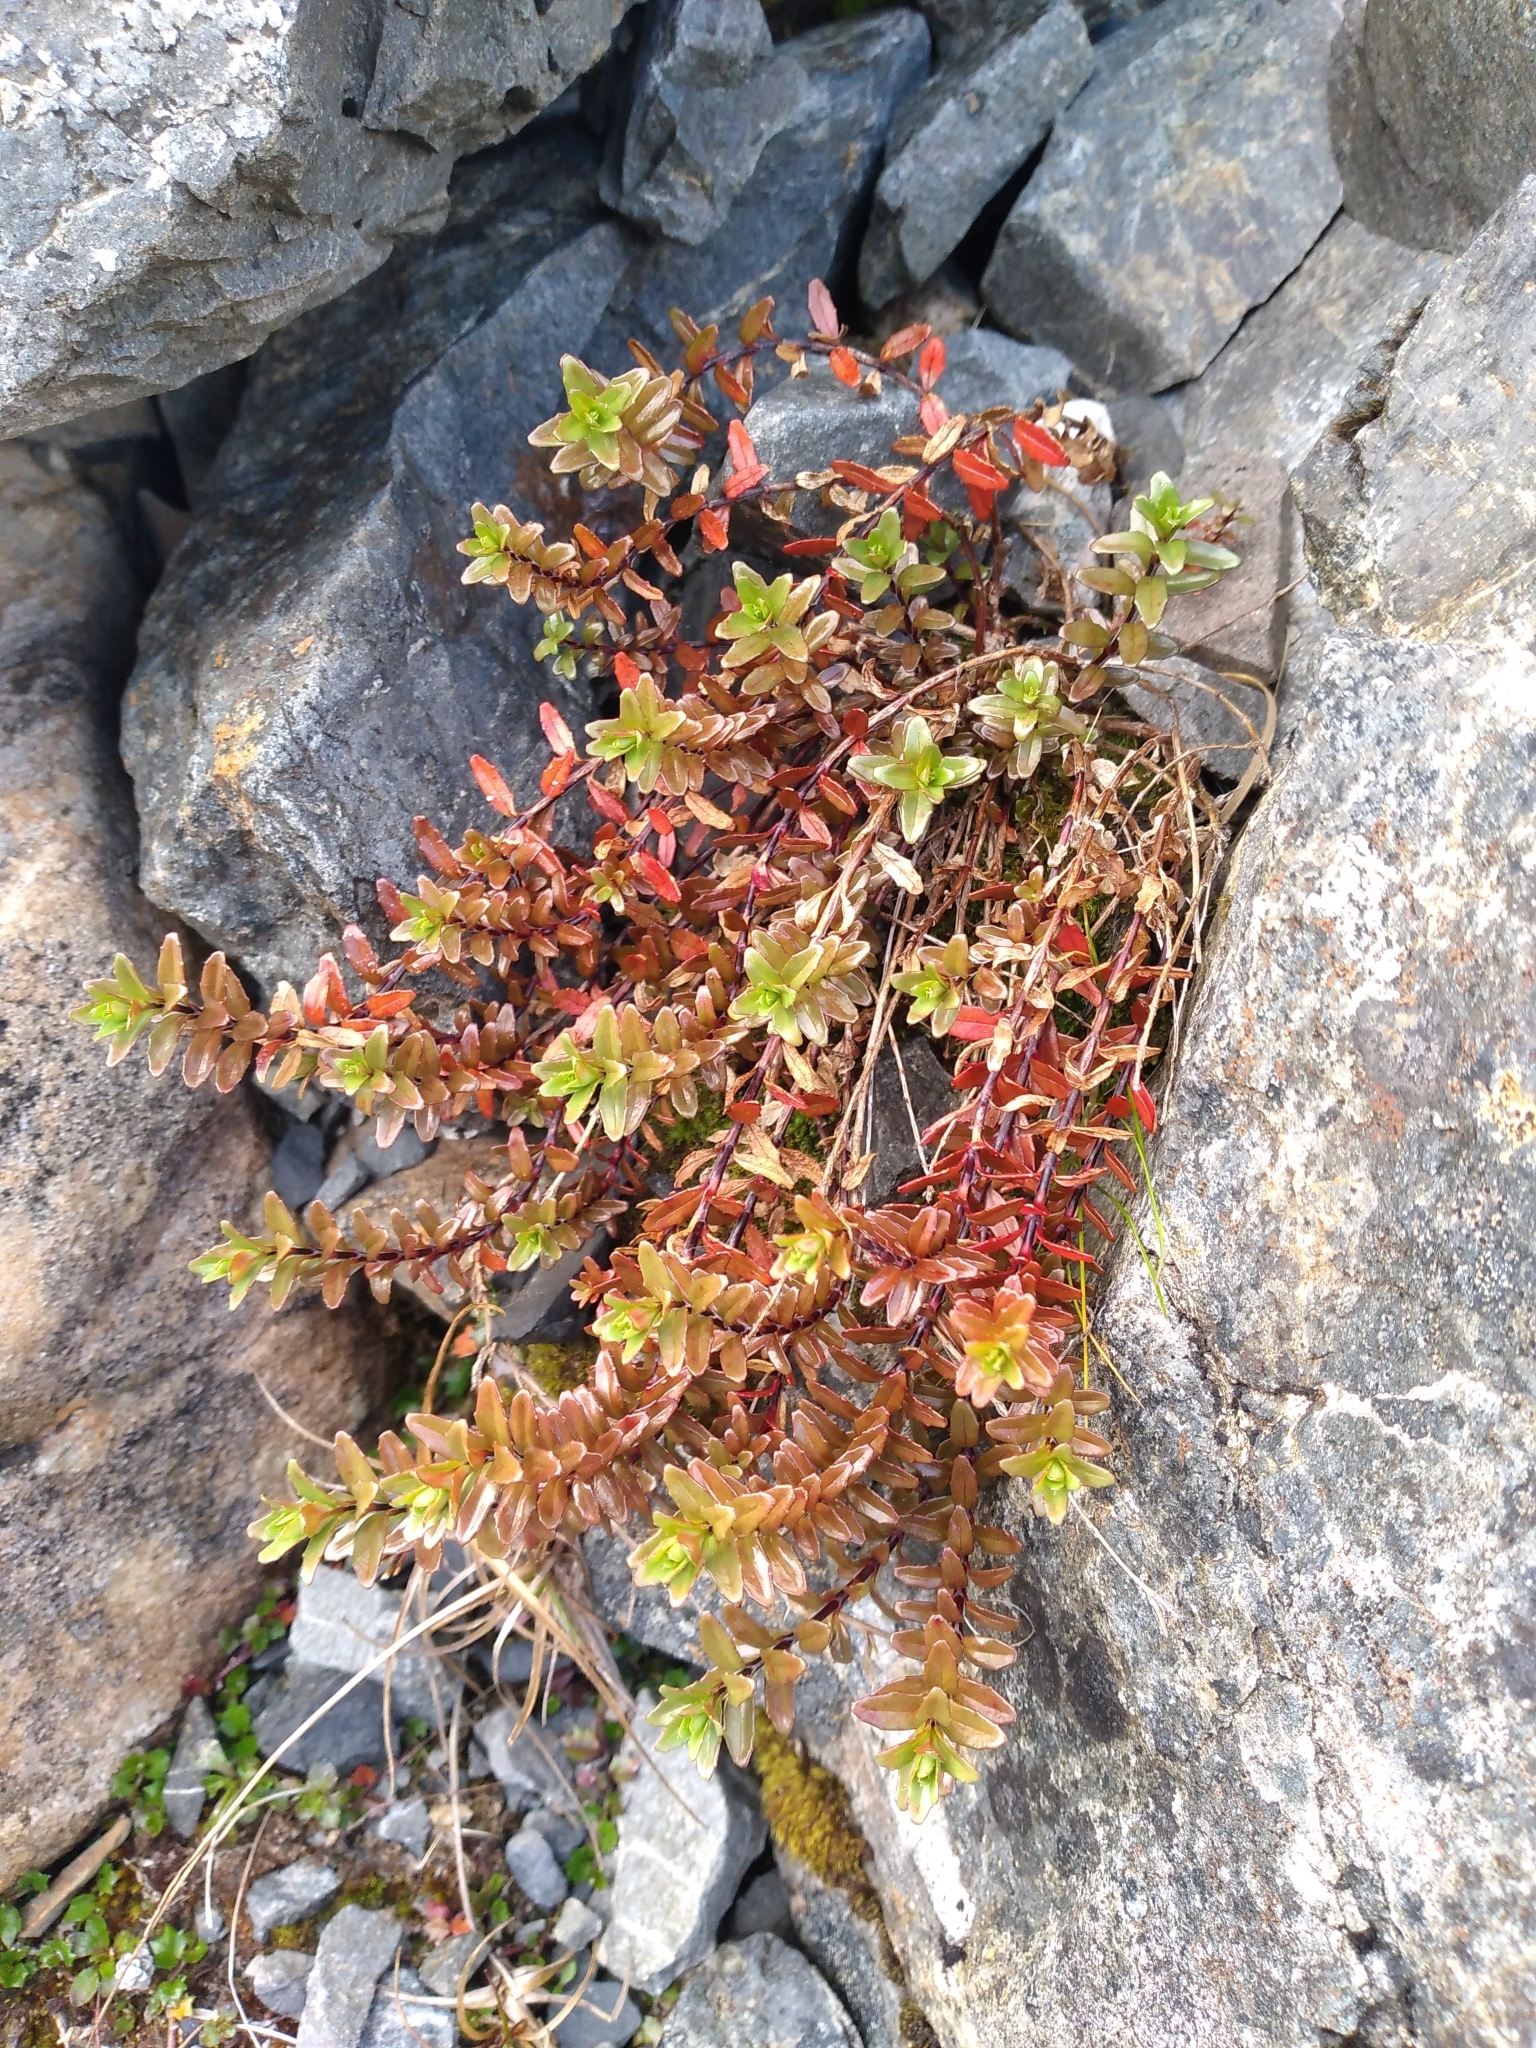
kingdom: Plantae
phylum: Tracheophyta
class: Magnoliopsida
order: Myrtales
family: Onagraceae
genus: Epilobium
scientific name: Epilobium glabellum
